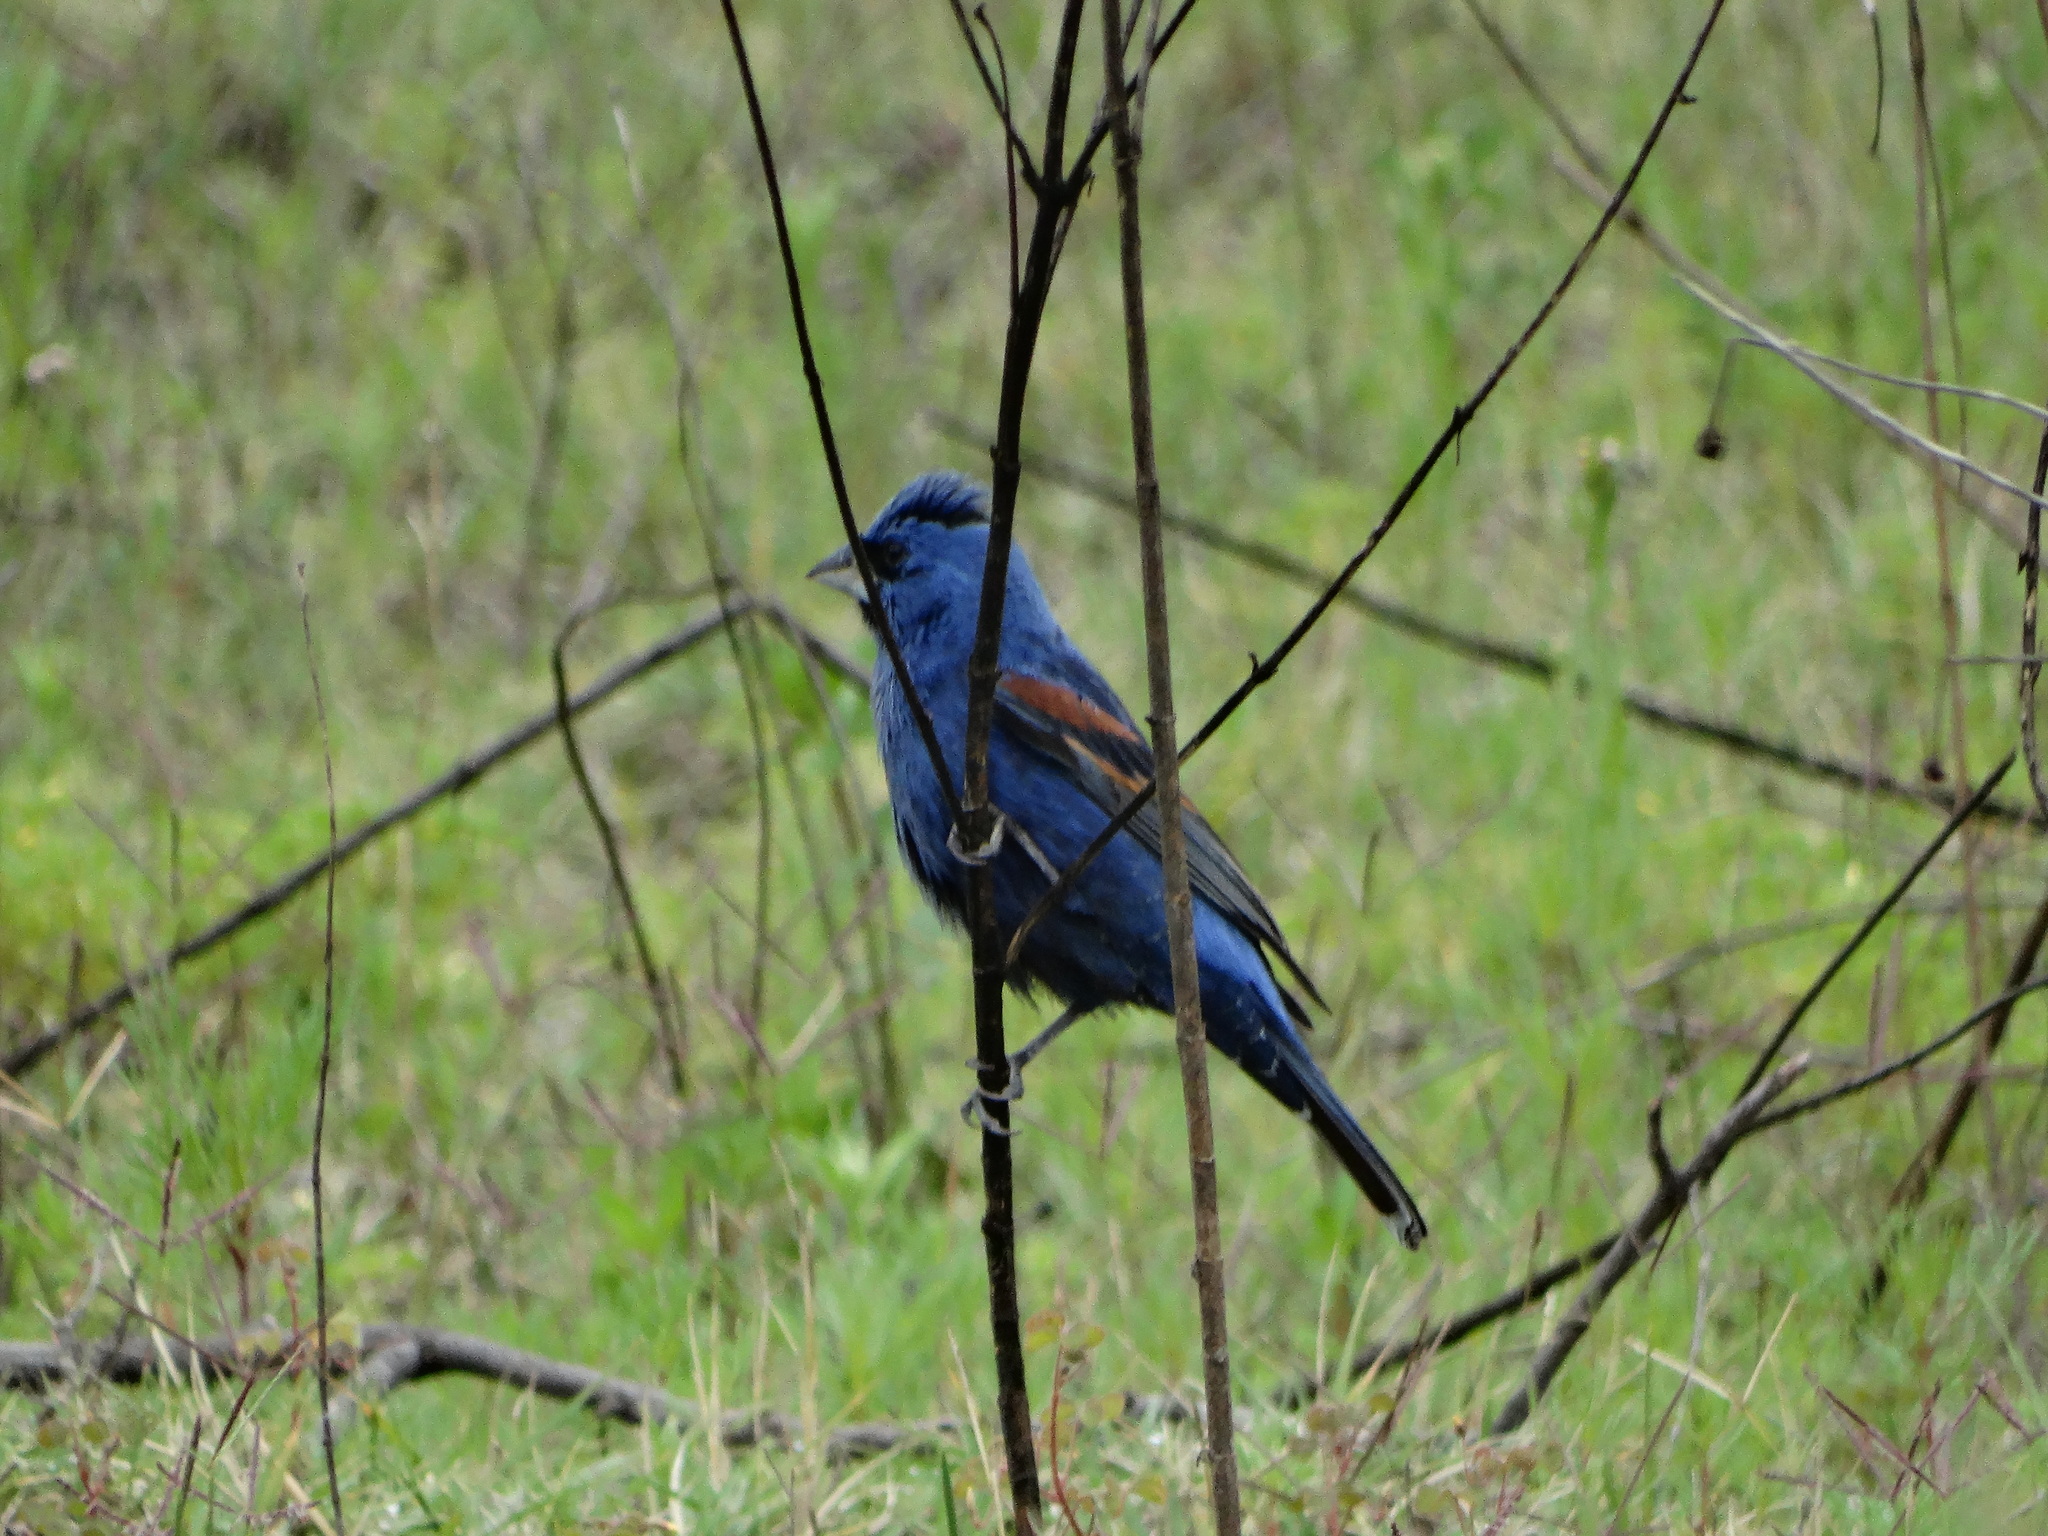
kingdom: Animalia
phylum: Chordata
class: Aves
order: Passeriformes
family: Cardinalidae
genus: Passerina
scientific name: Passerina caerulea
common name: Blue grosbeak
